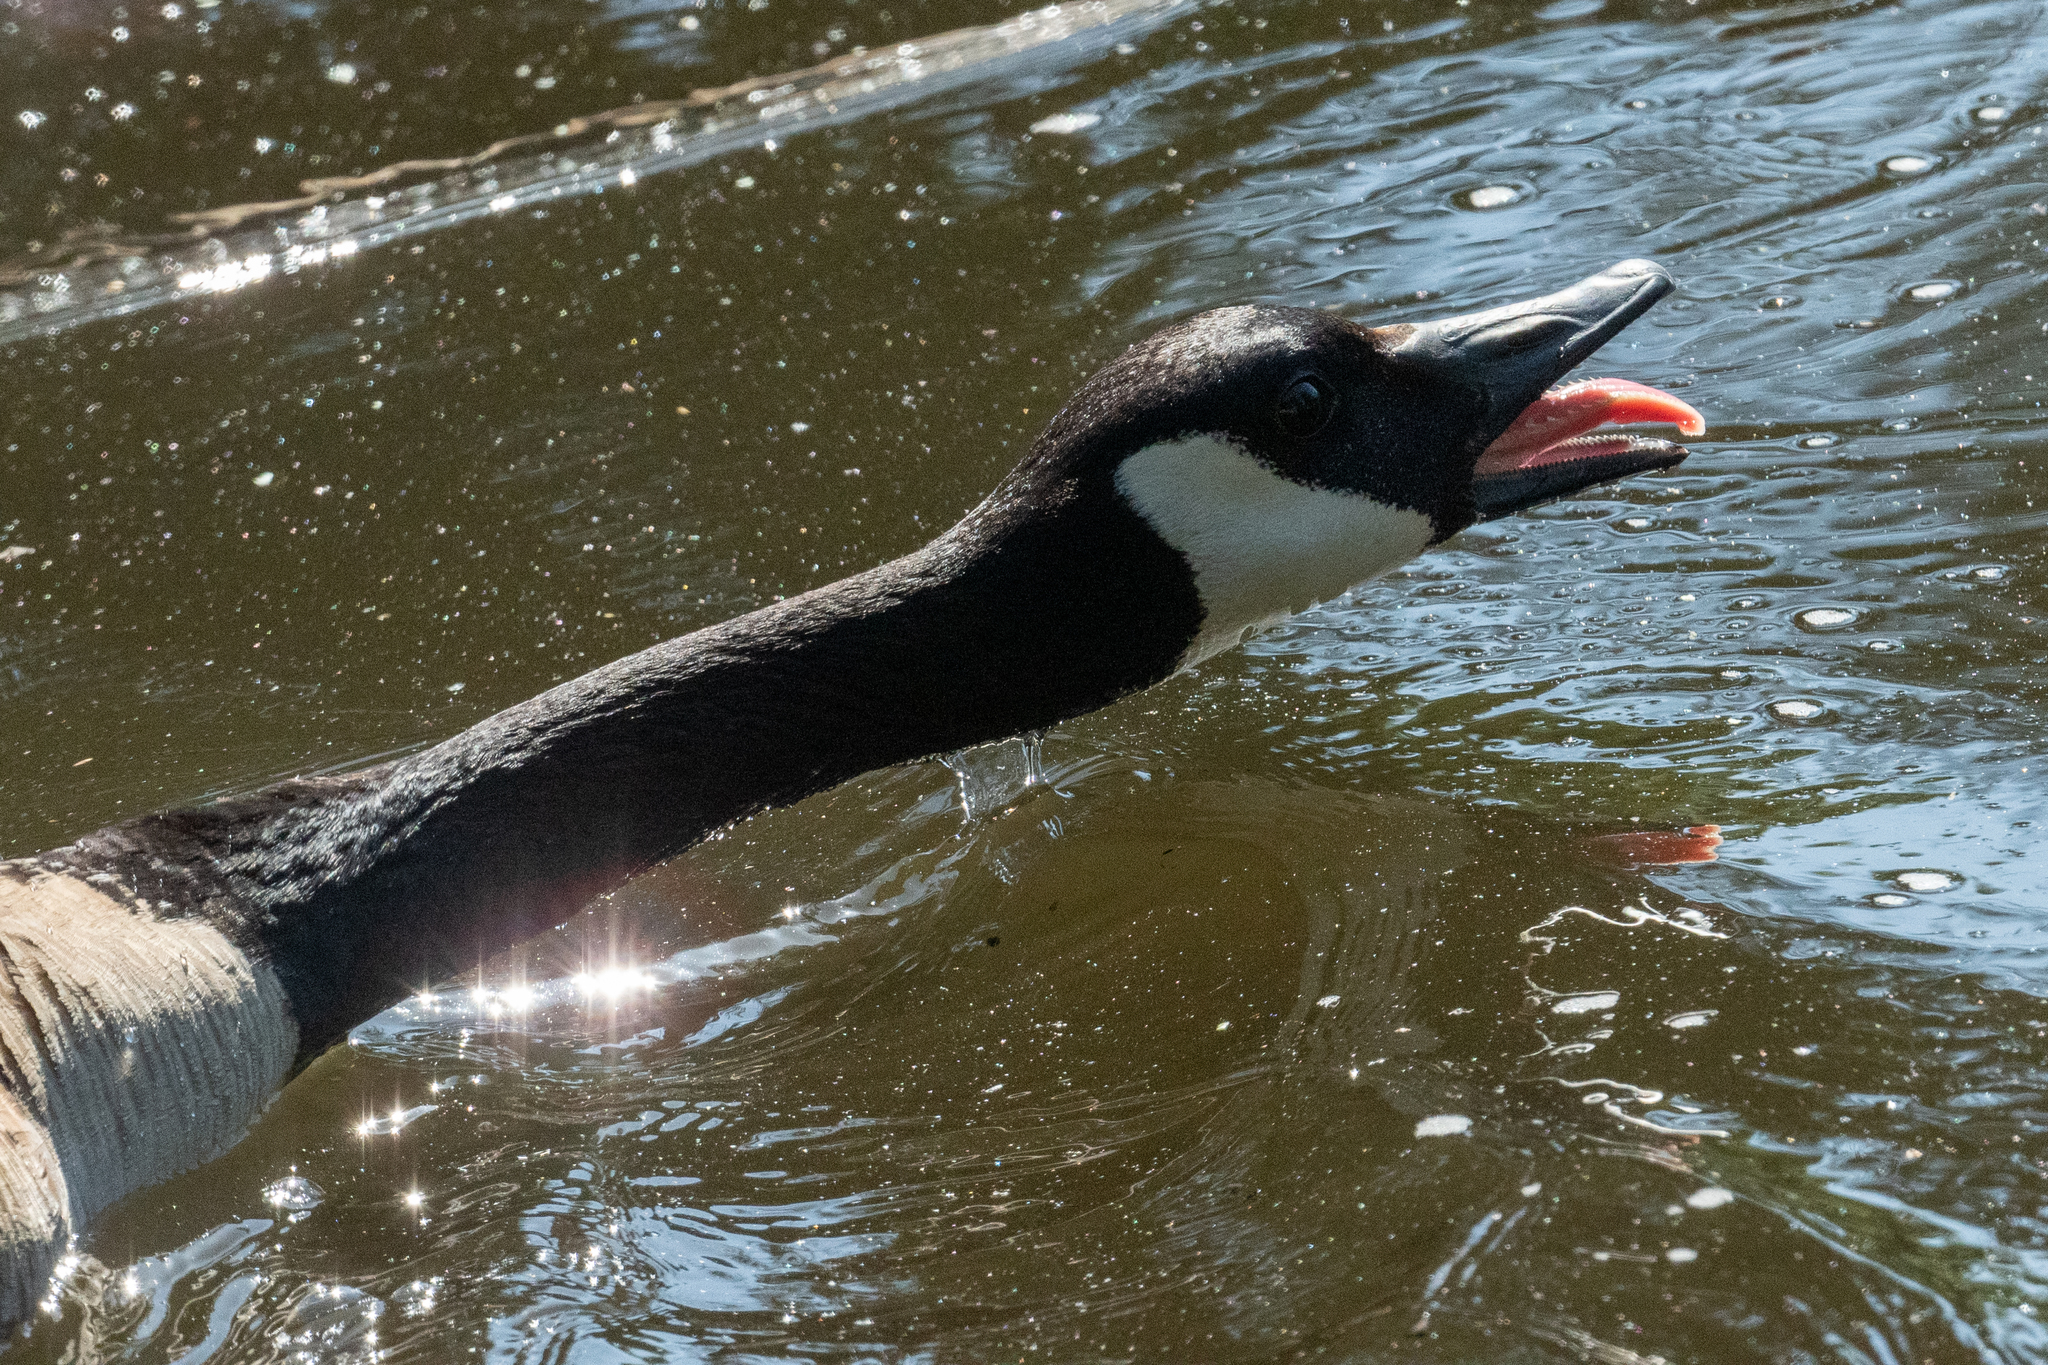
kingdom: Animalia
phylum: Chordata
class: Aves
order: Anseriformes
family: Anatidae
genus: Branta
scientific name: Branta canadensis
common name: Canada goose
